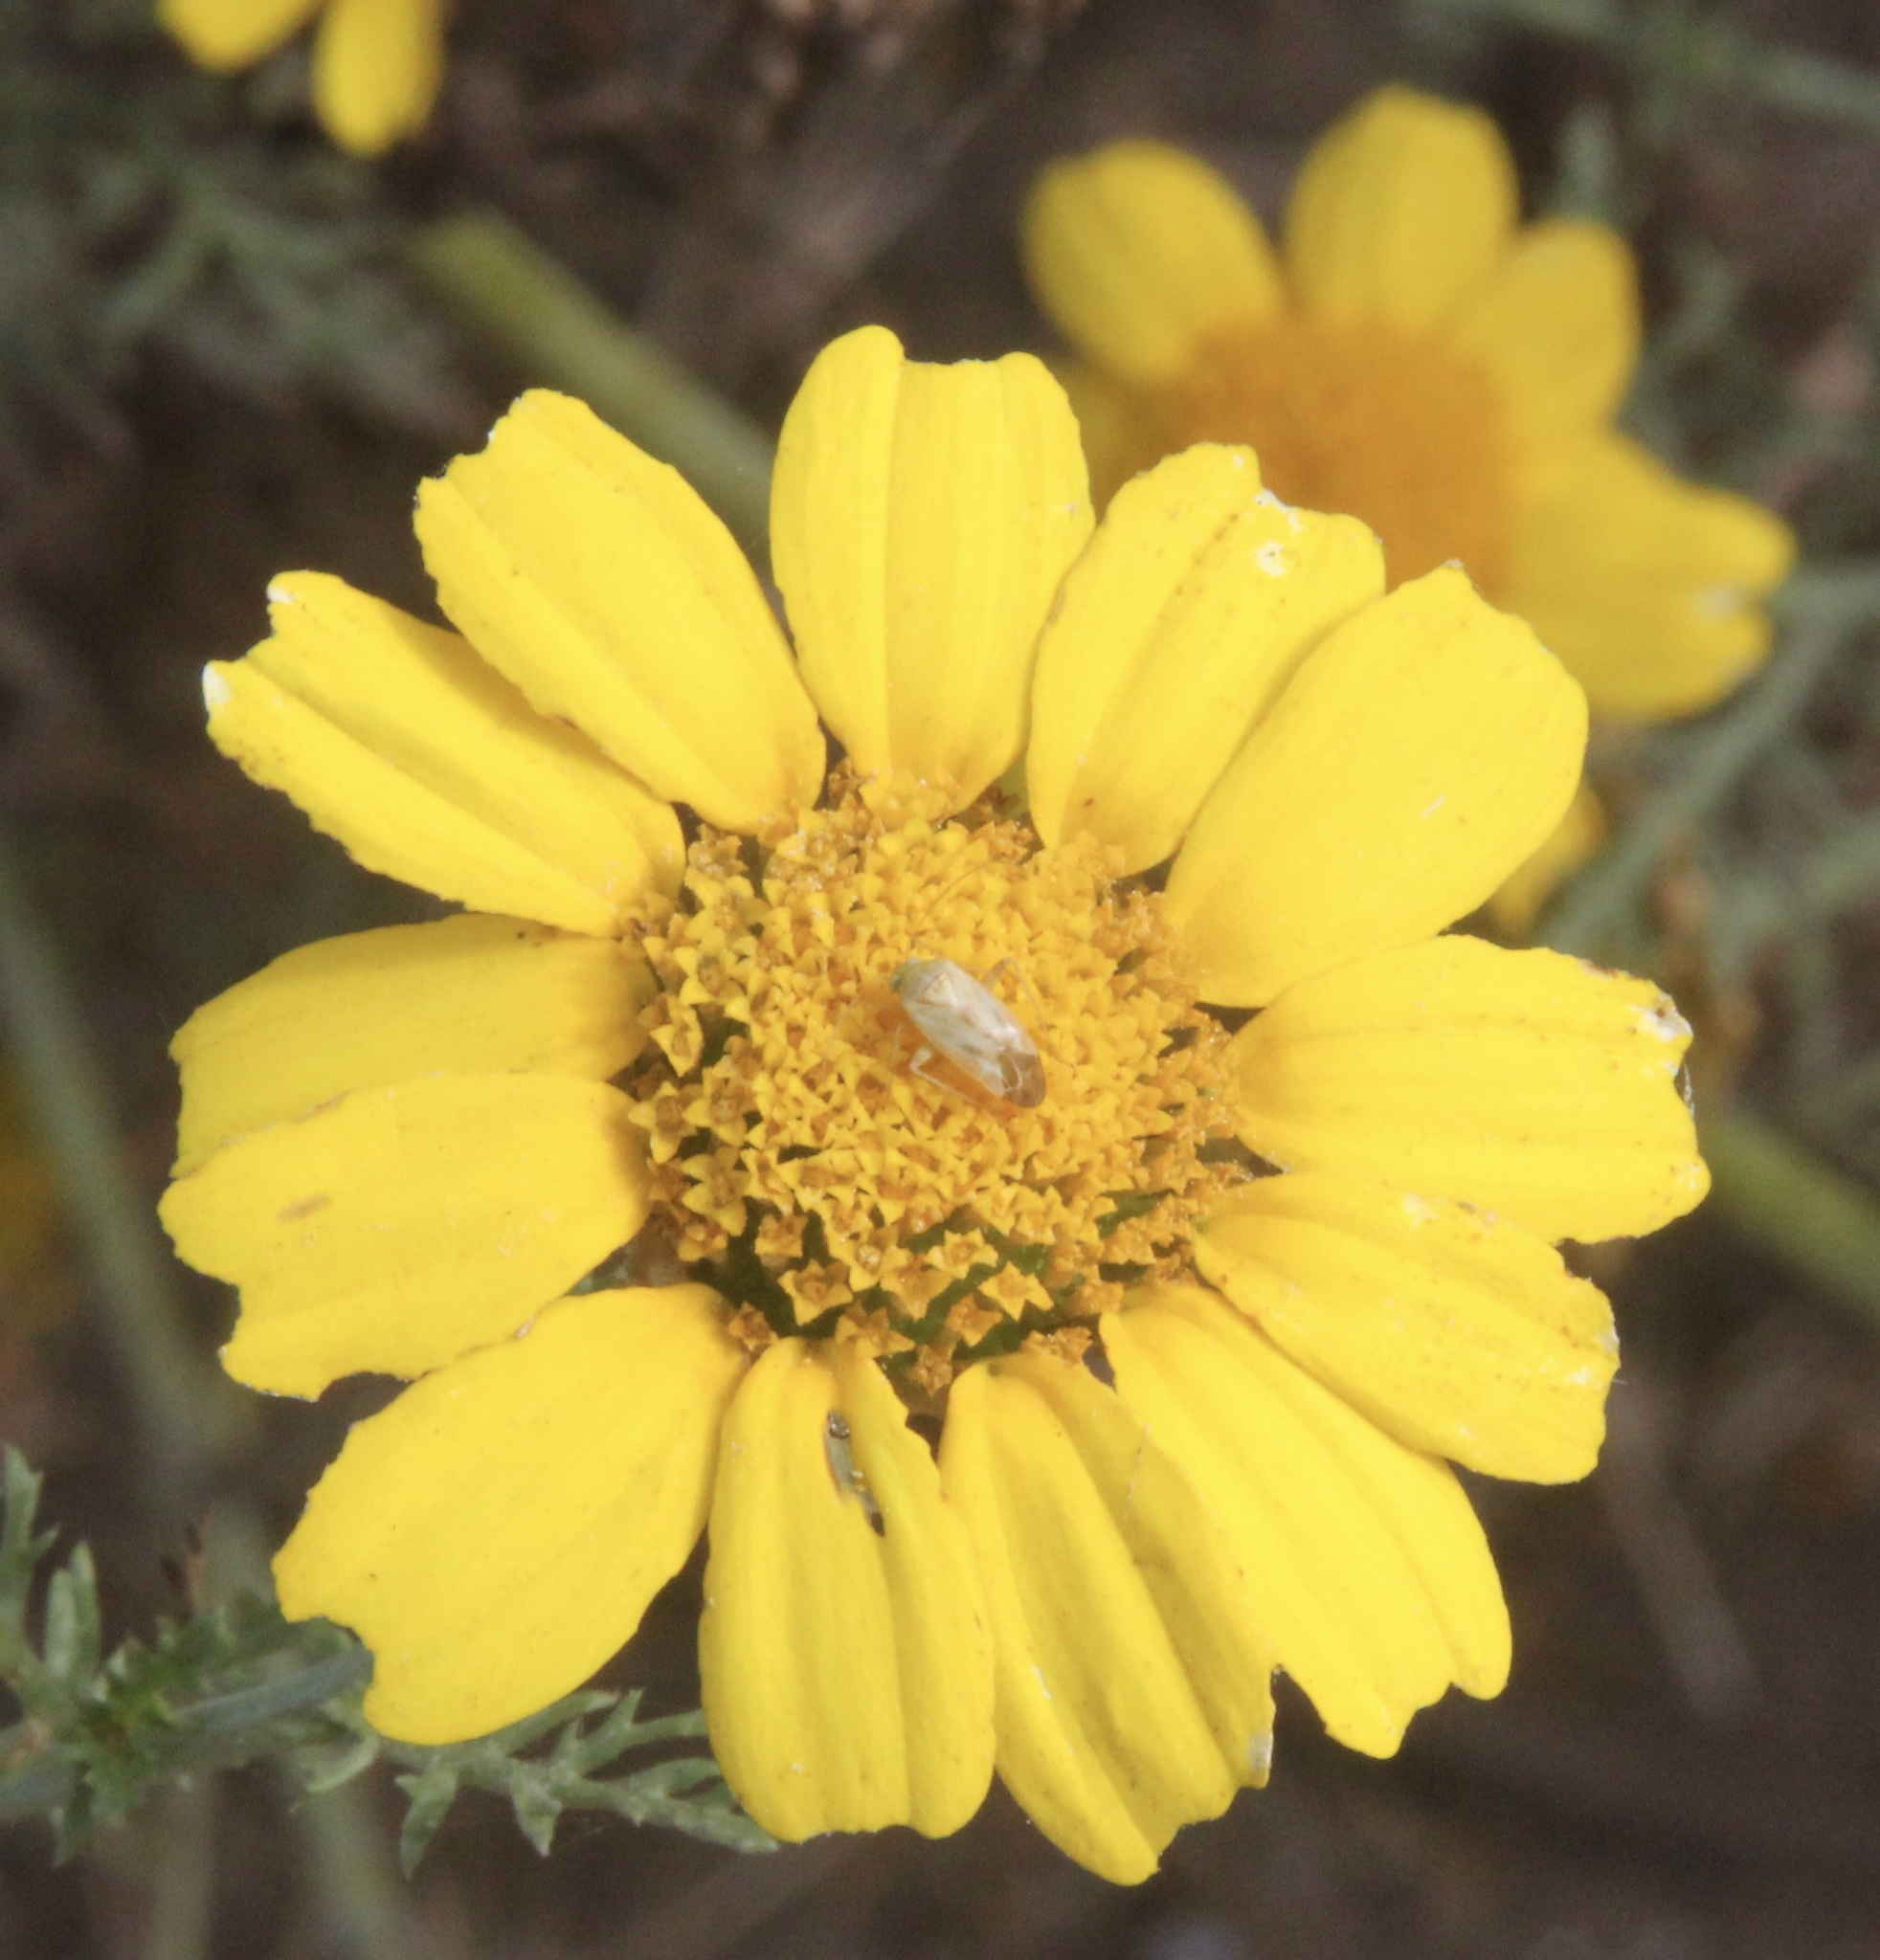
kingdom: Animalia
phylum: Arthropoda
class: Insecta
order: Hemiptera
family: Miridae
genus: Taylorilygus
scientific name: Taylorilygus apicalis
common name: Plant bug
